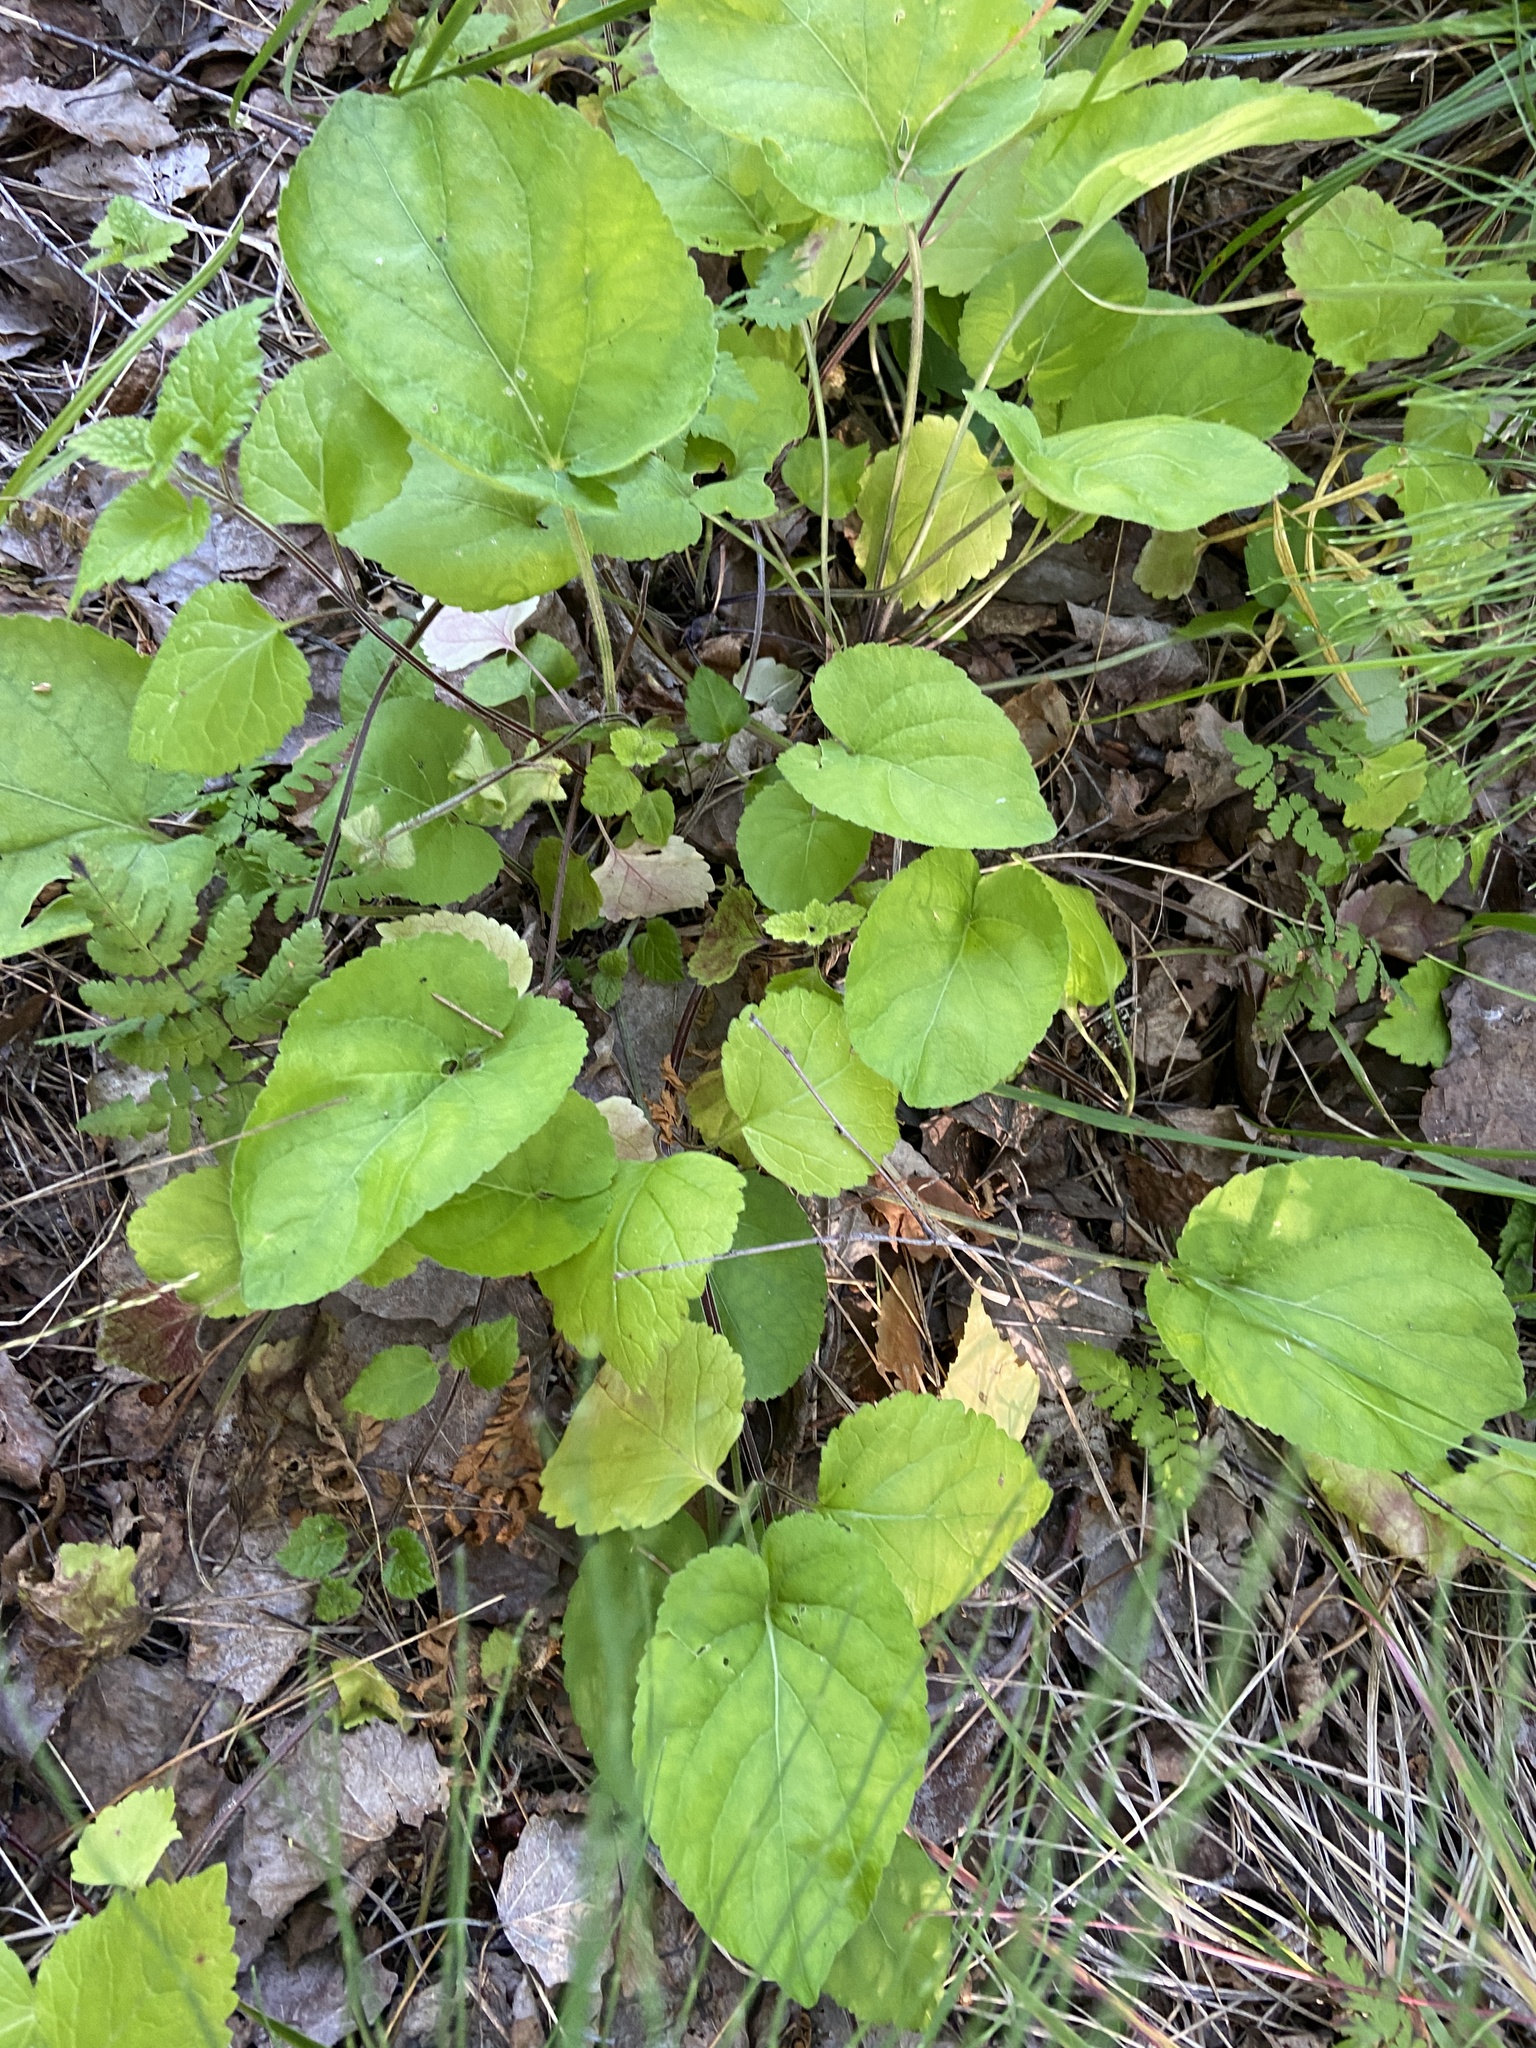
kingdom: Plantae
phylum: Tracheophyta
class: Magnoliopsida
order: Malpighiales
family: Violaceae
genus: Viola
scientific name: Viola hirta
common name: Hairy violet
